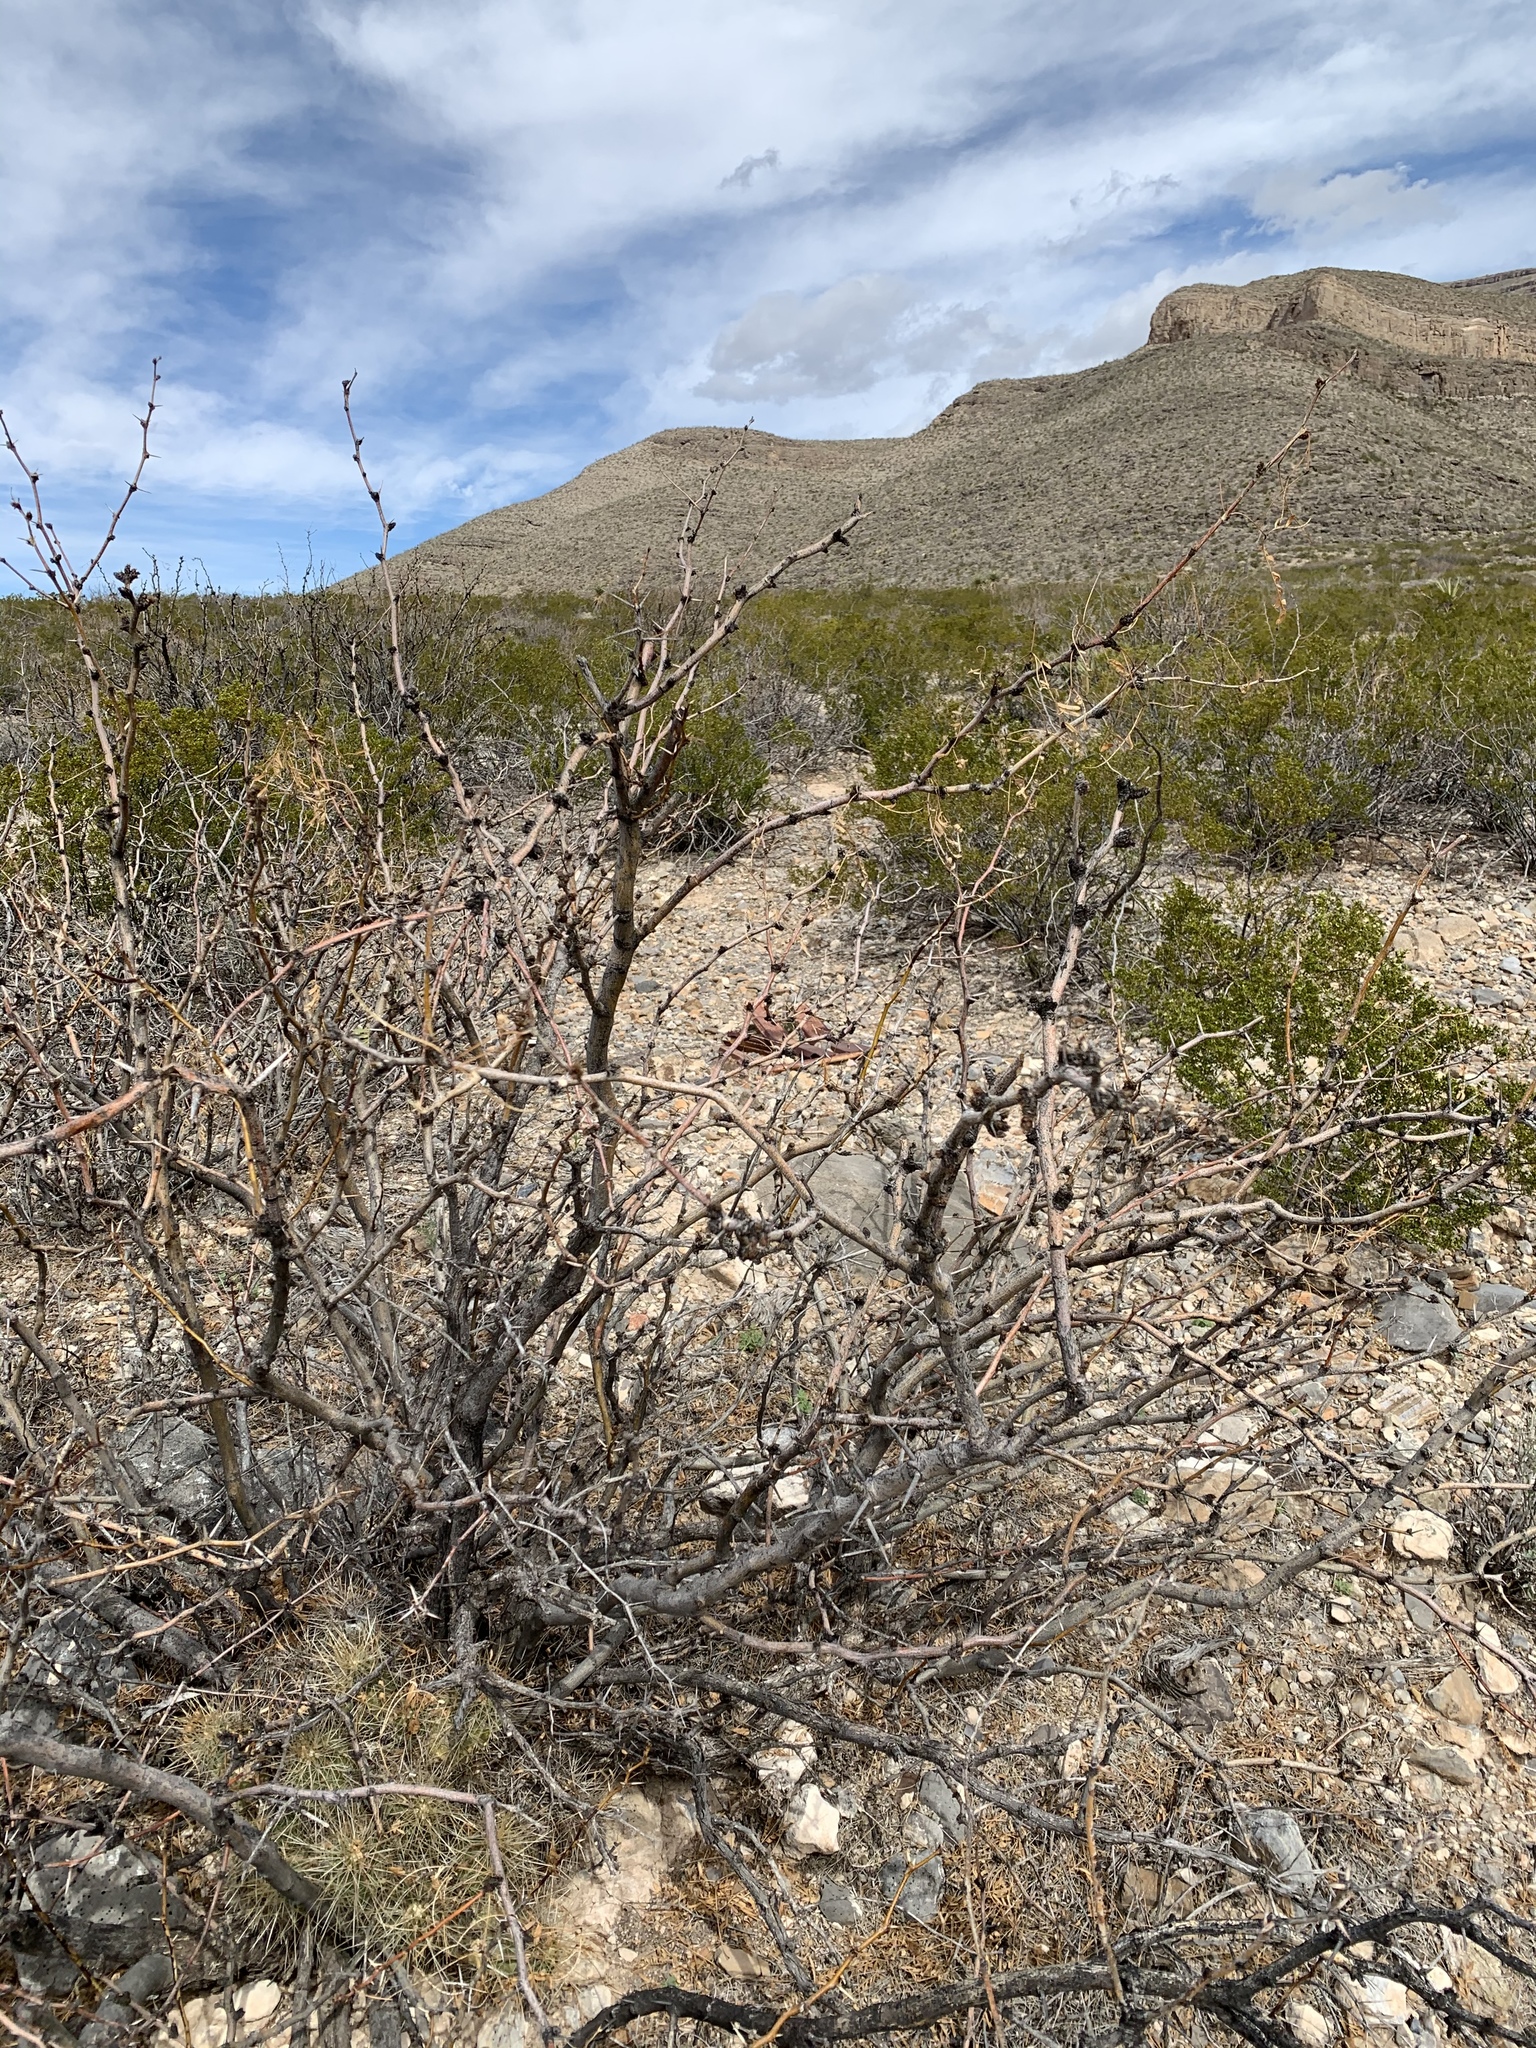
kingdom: Plantae
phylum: Tracheophyta
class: Magnoliopsida
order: Fabales
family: Fabaceae
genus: Prosopis
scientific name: Prosopis glandulosa
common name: Honey mesquite
